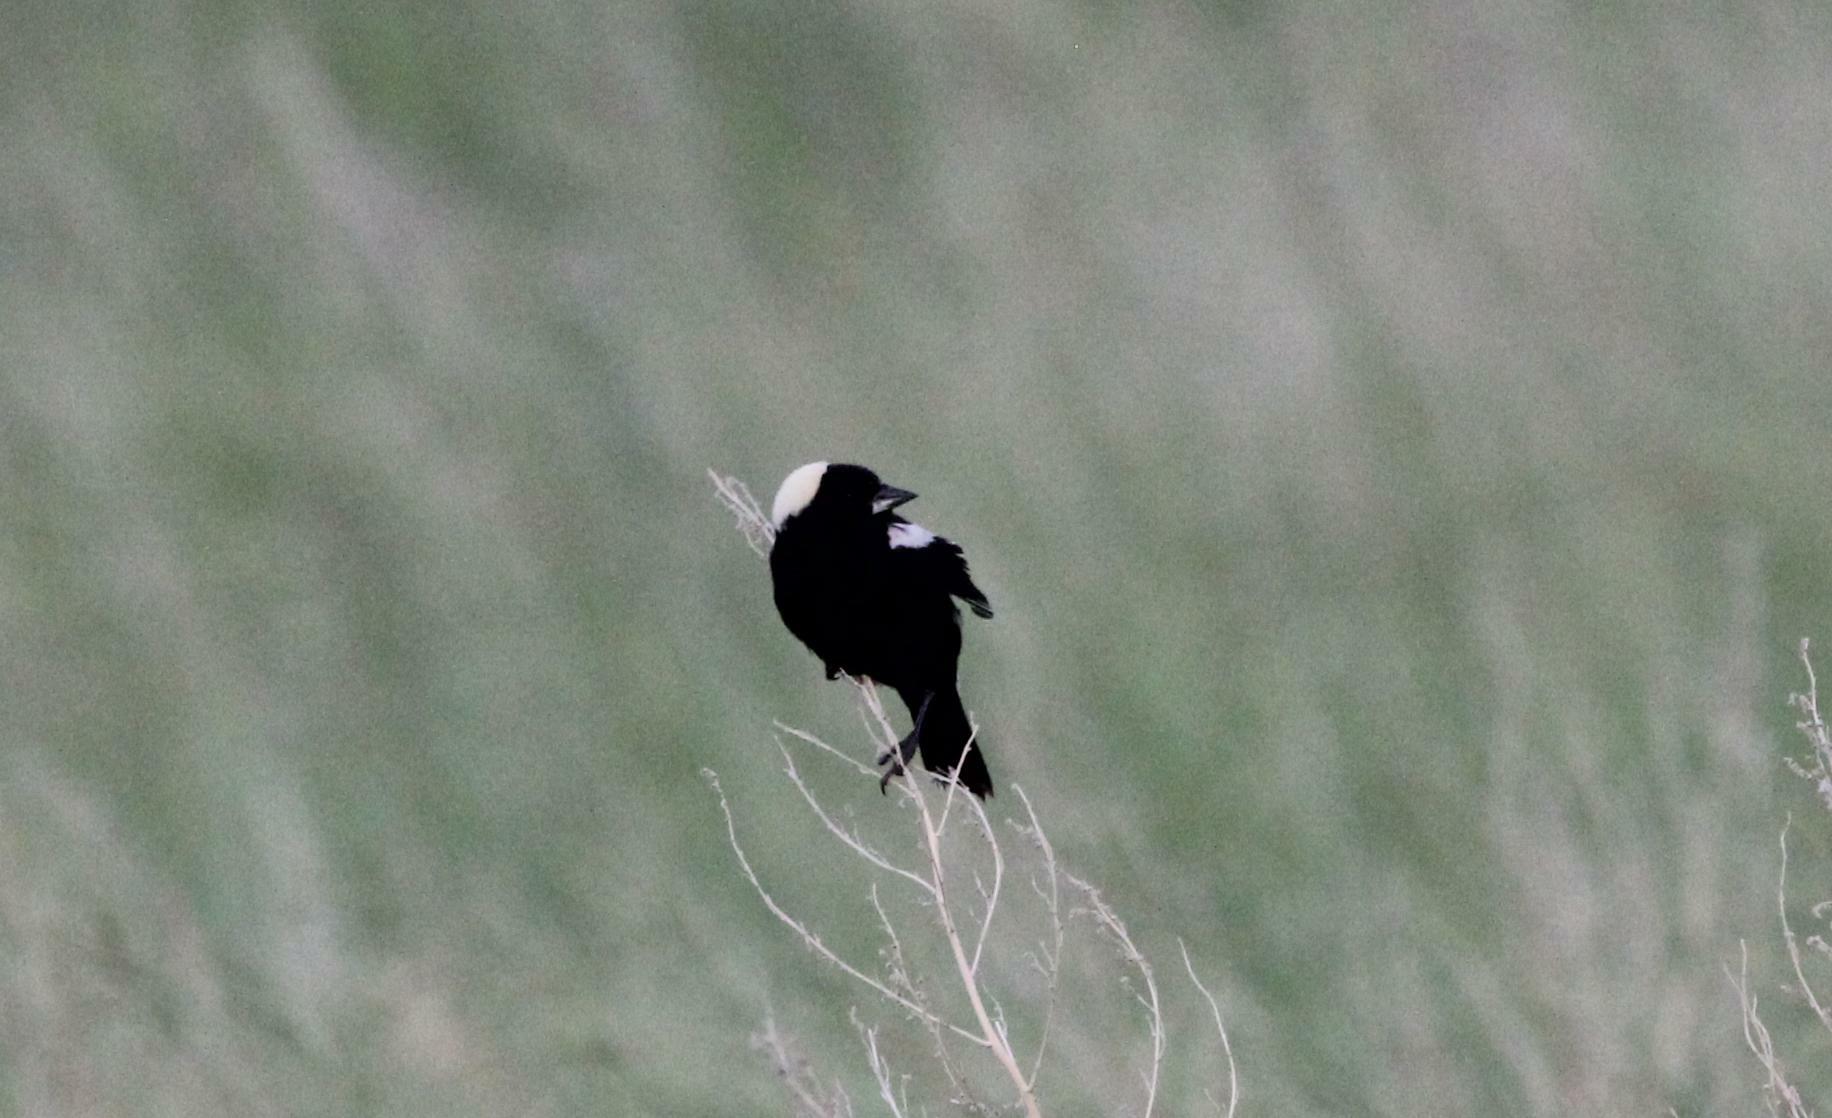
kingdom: Animalia
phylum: Chordata
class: Aves
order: Passeriformes
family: Icteridae
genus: Dolichonyx
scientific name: Dolichonyx oryzivorus
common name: Bobolink
